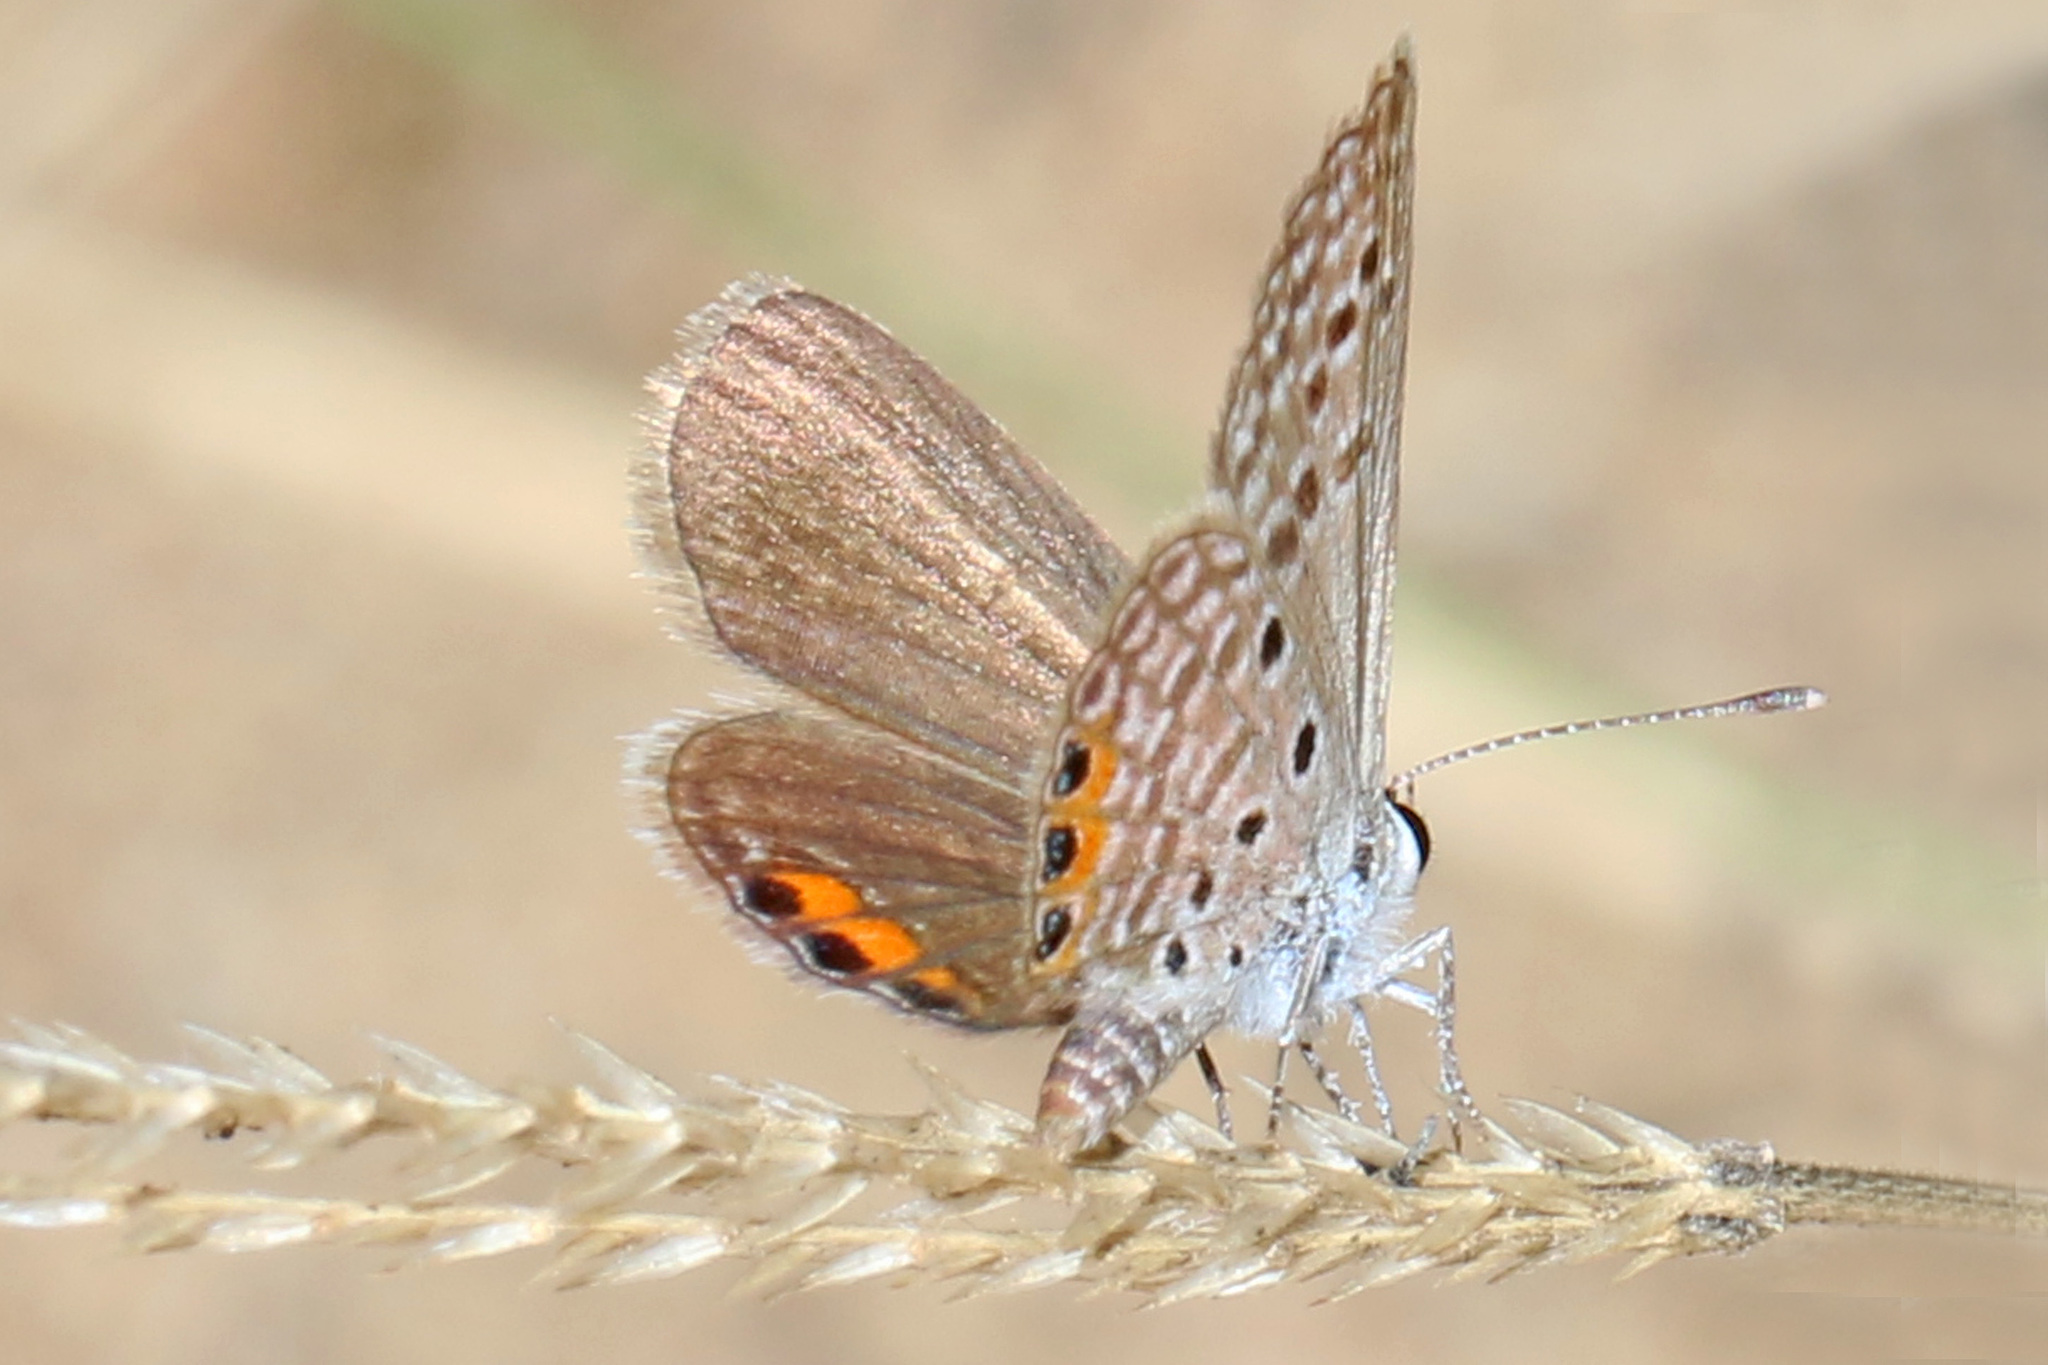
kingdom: Animalia
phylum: Arthropoda
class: Insecta
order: Lepidoptera
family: Lycaenidae
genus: Freyeria
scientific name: Freyeria trochylus
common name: Grass jewel
